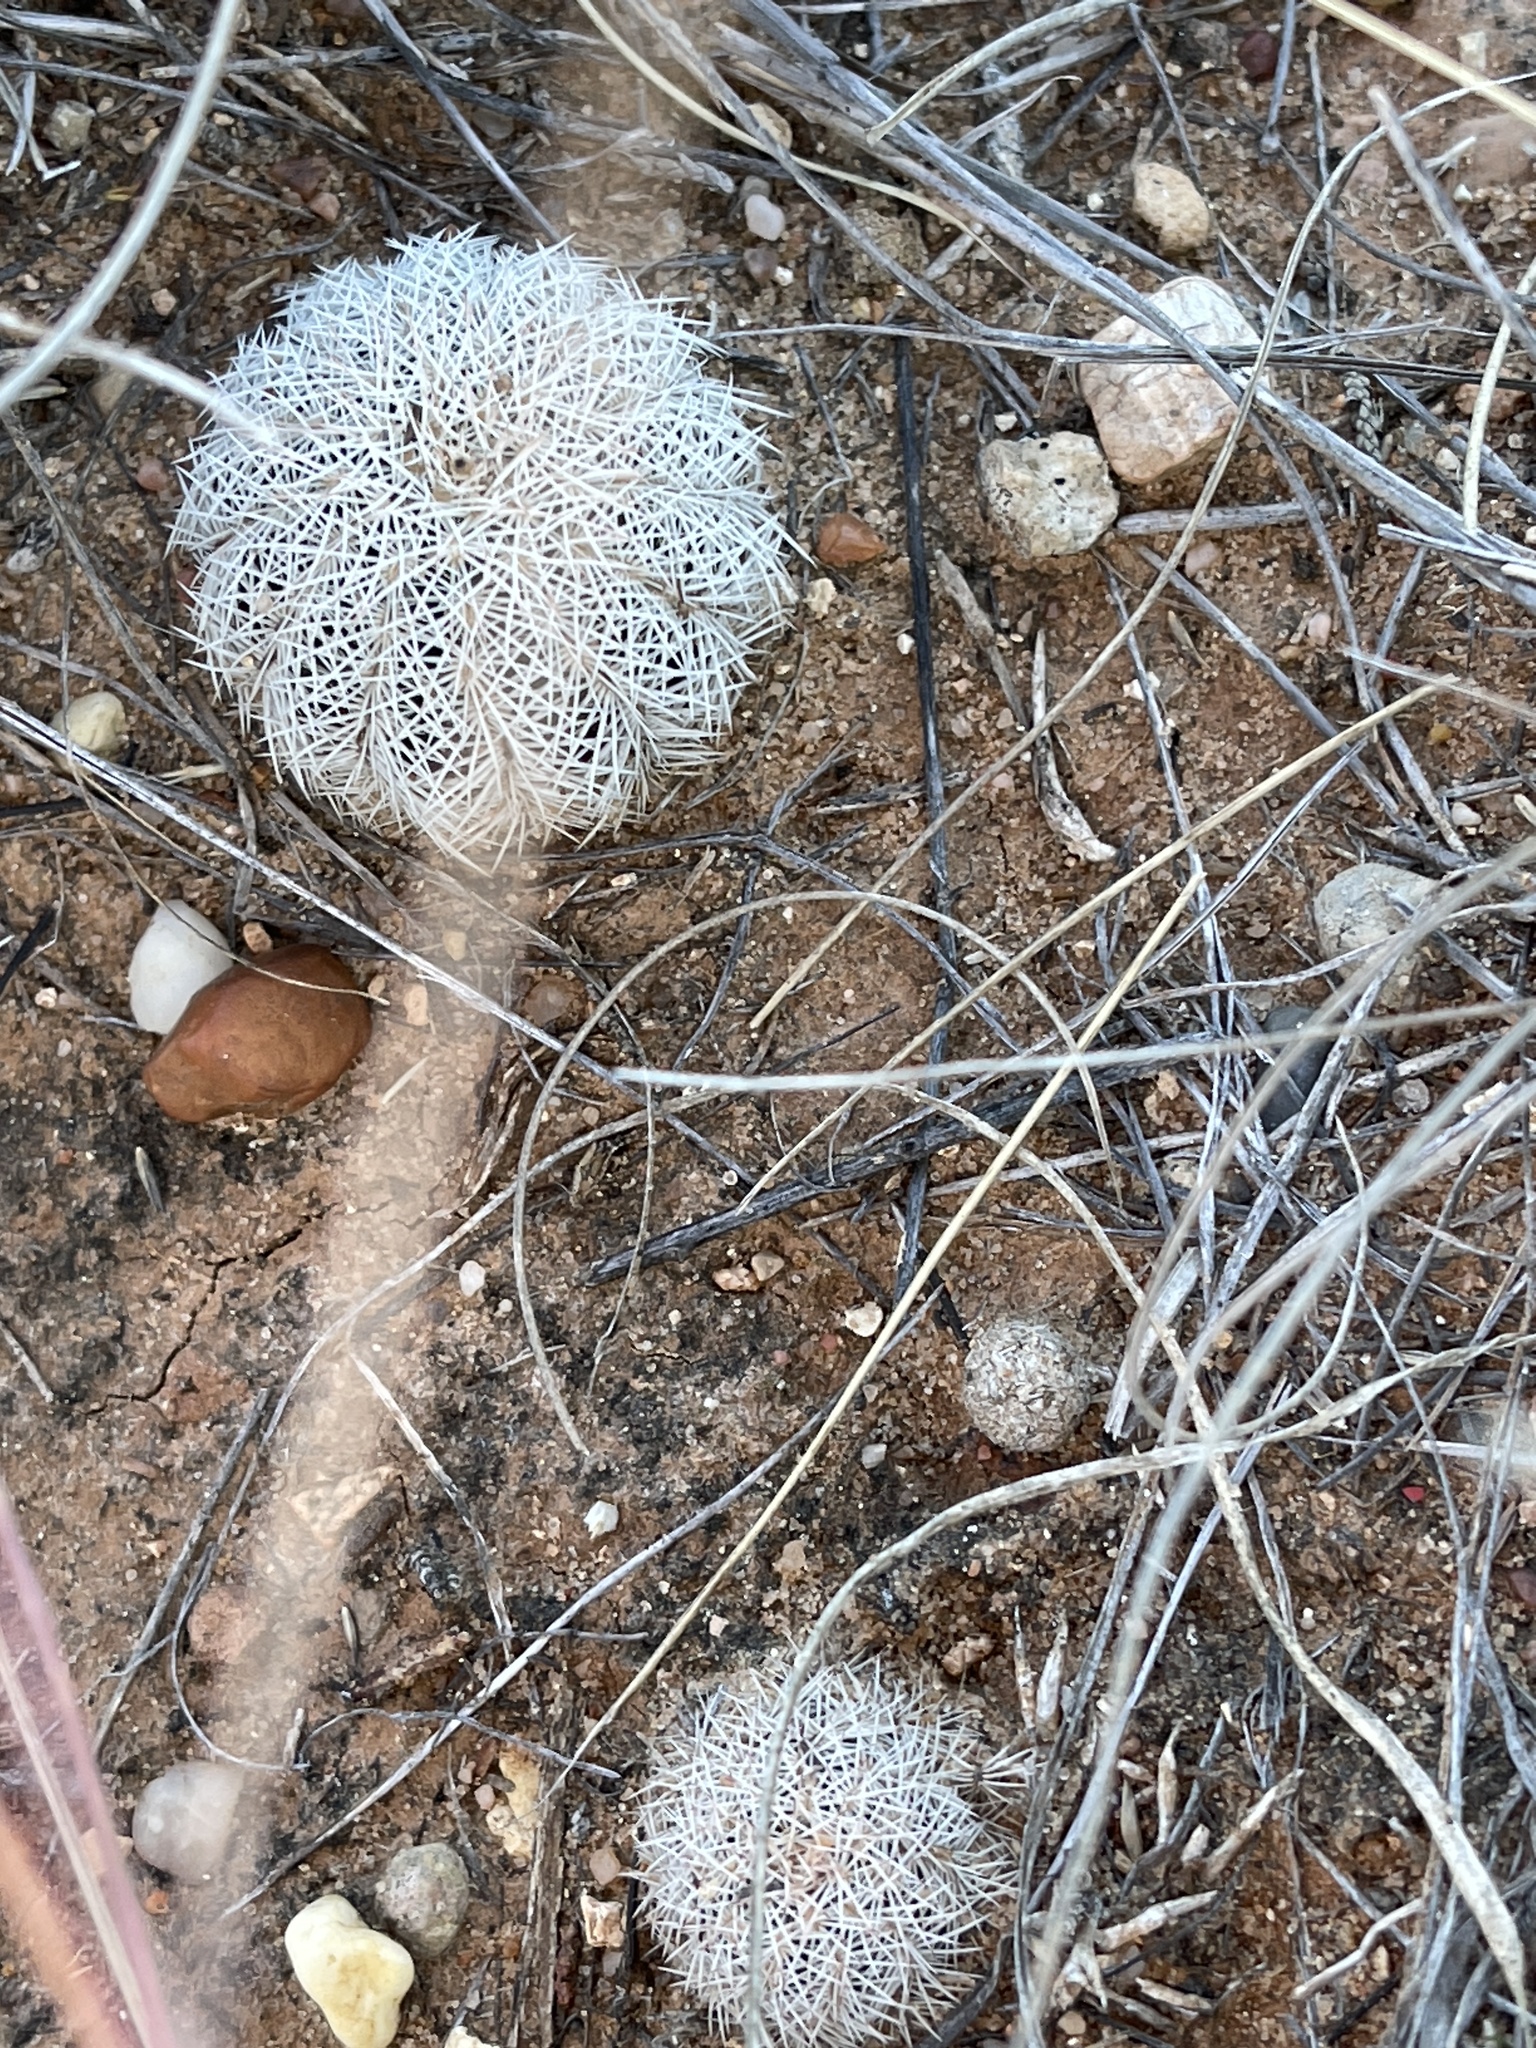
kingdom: Plantae
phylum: Tracheophyta
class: Magnoliopsida
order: Caryophyllales
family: Cactaceae
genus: Echinocereus
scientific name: Echinocereus reichenbachii
